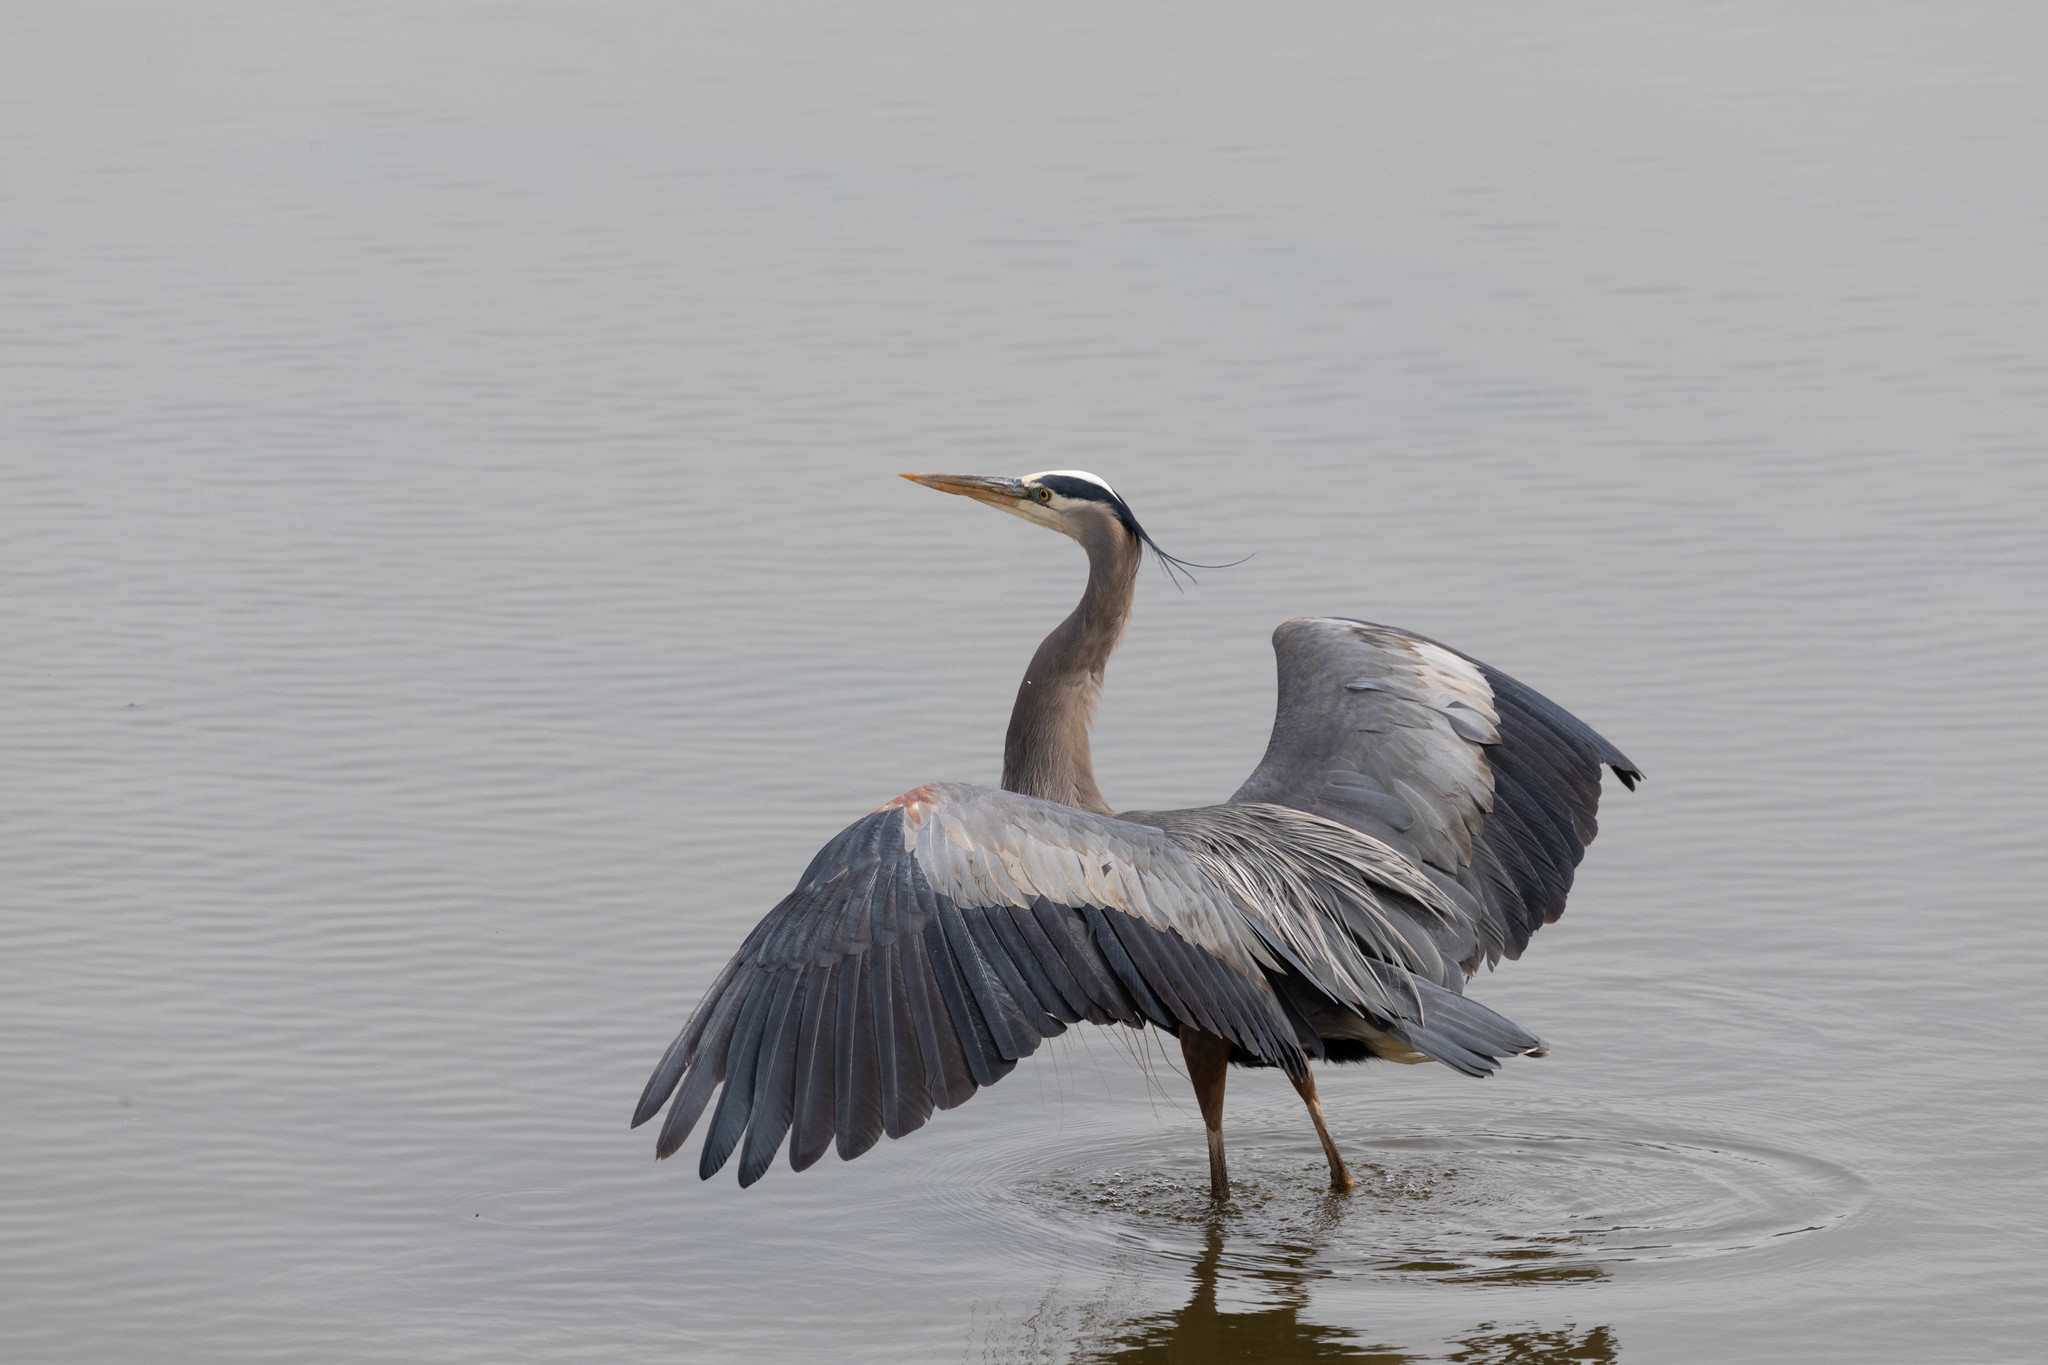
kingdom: Animalia
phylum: Chordata
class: Aves
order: Pelecaniformes
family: Ardeidae
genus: Ardea
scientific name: Ardea herodias
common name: Great blue heron
